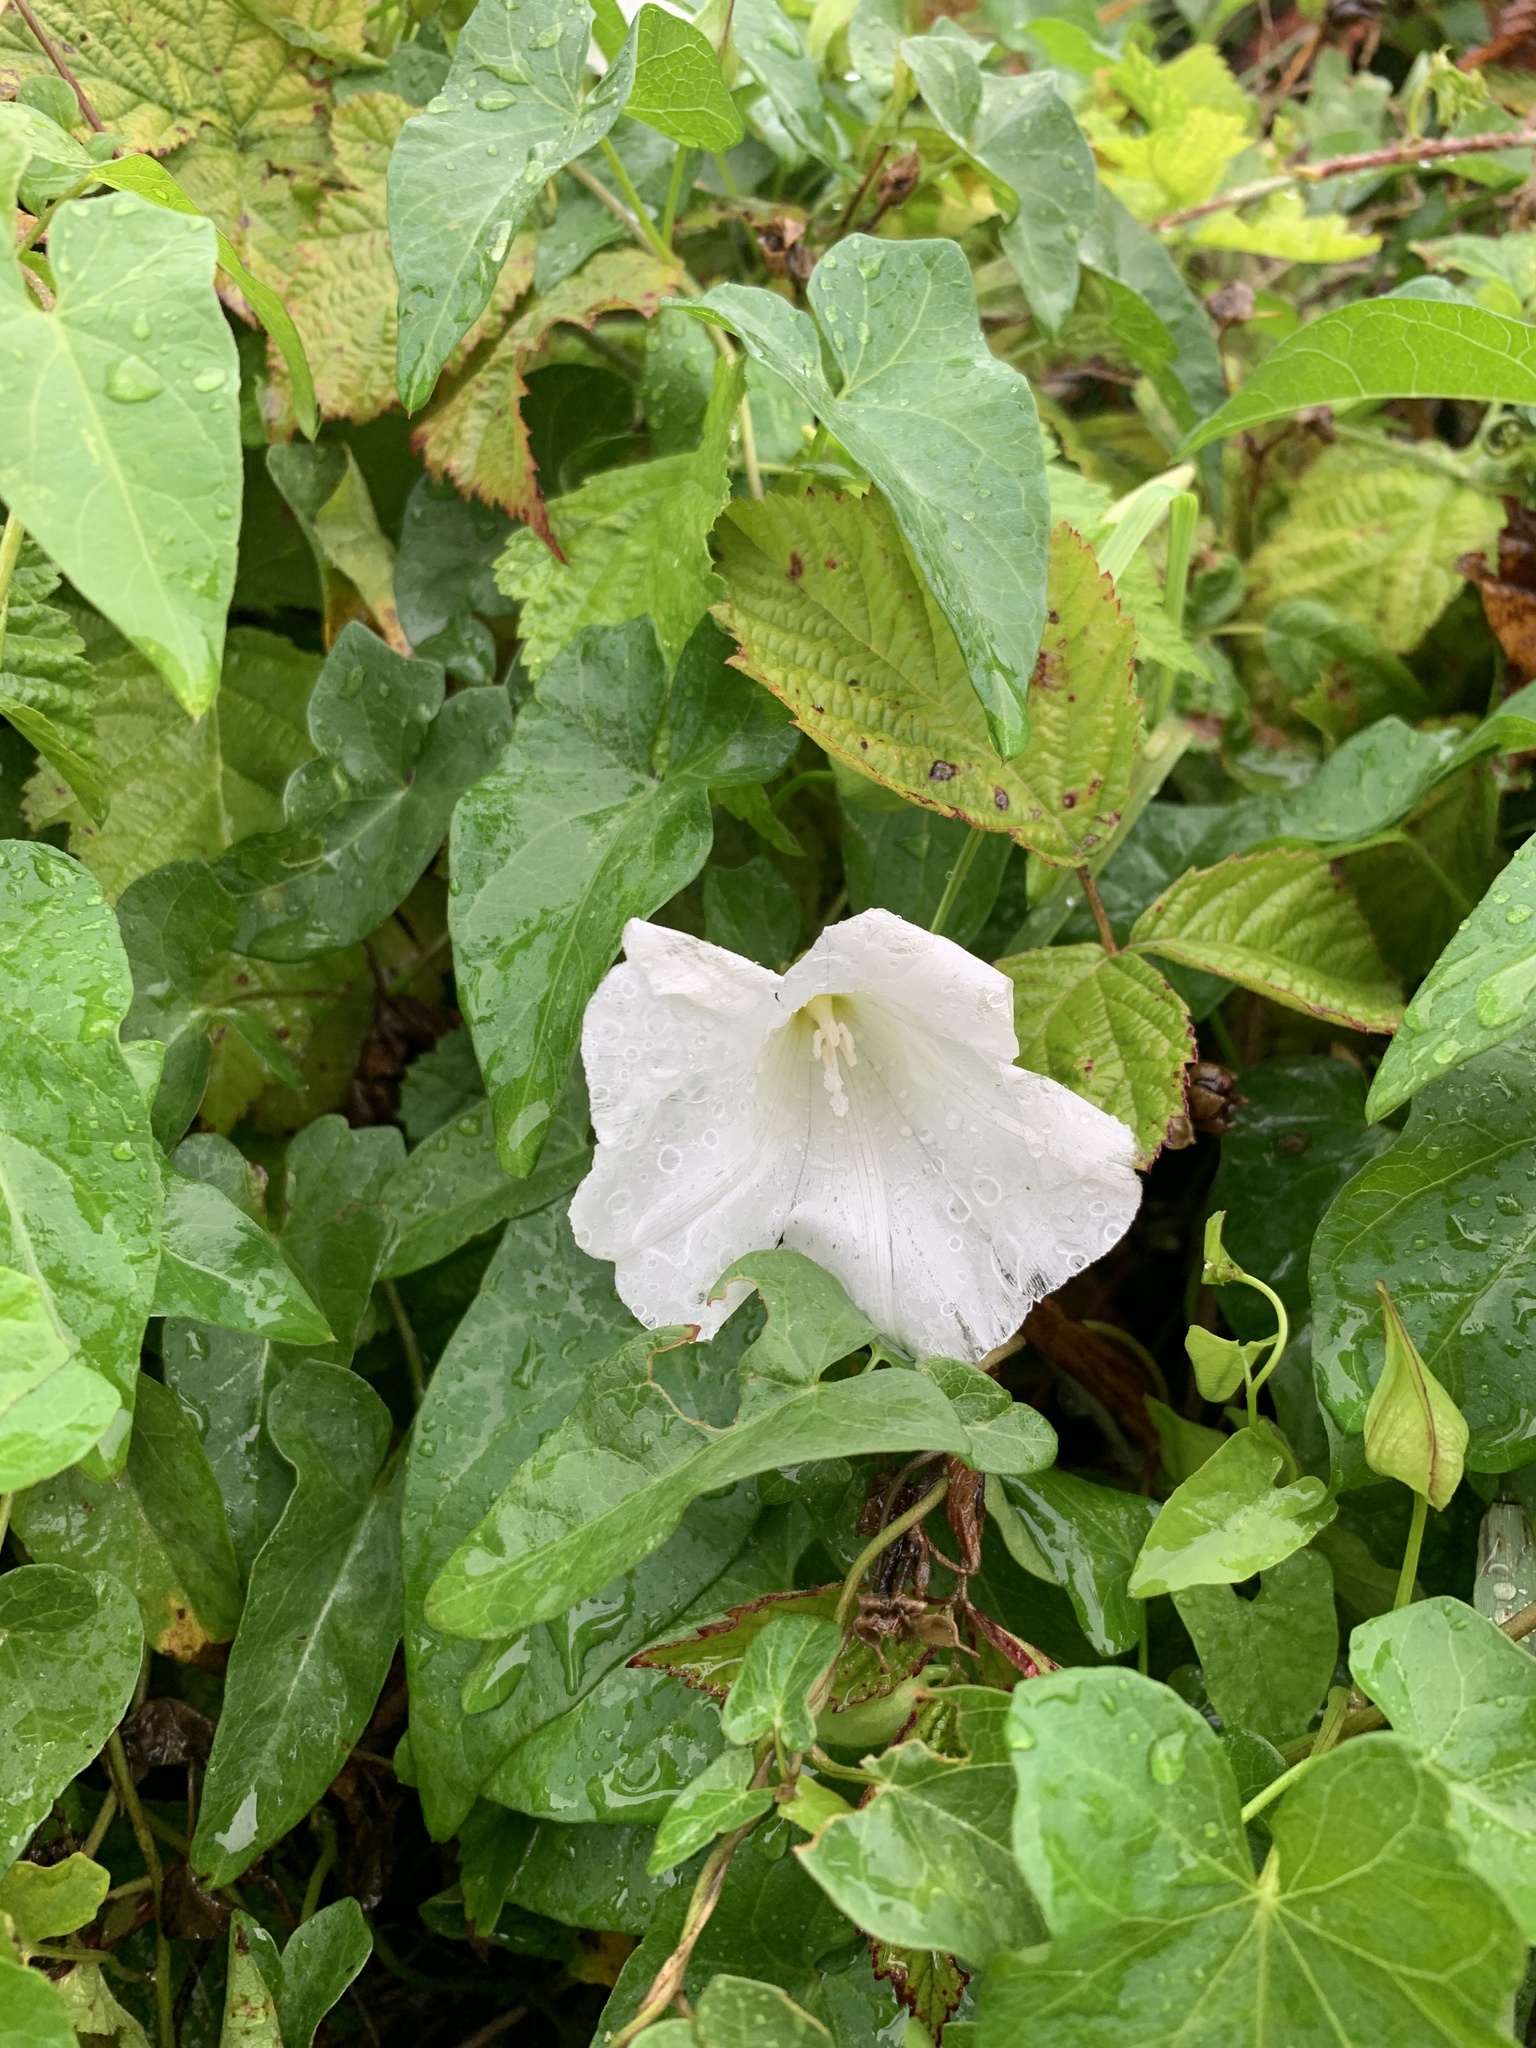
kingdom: Plantae
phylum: Tracheophyta
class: Magnoliopsida
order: Solanales
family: Convolvulaceae
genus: Calystegia
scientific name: Calystegia sepium
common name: Hedge bindweed
